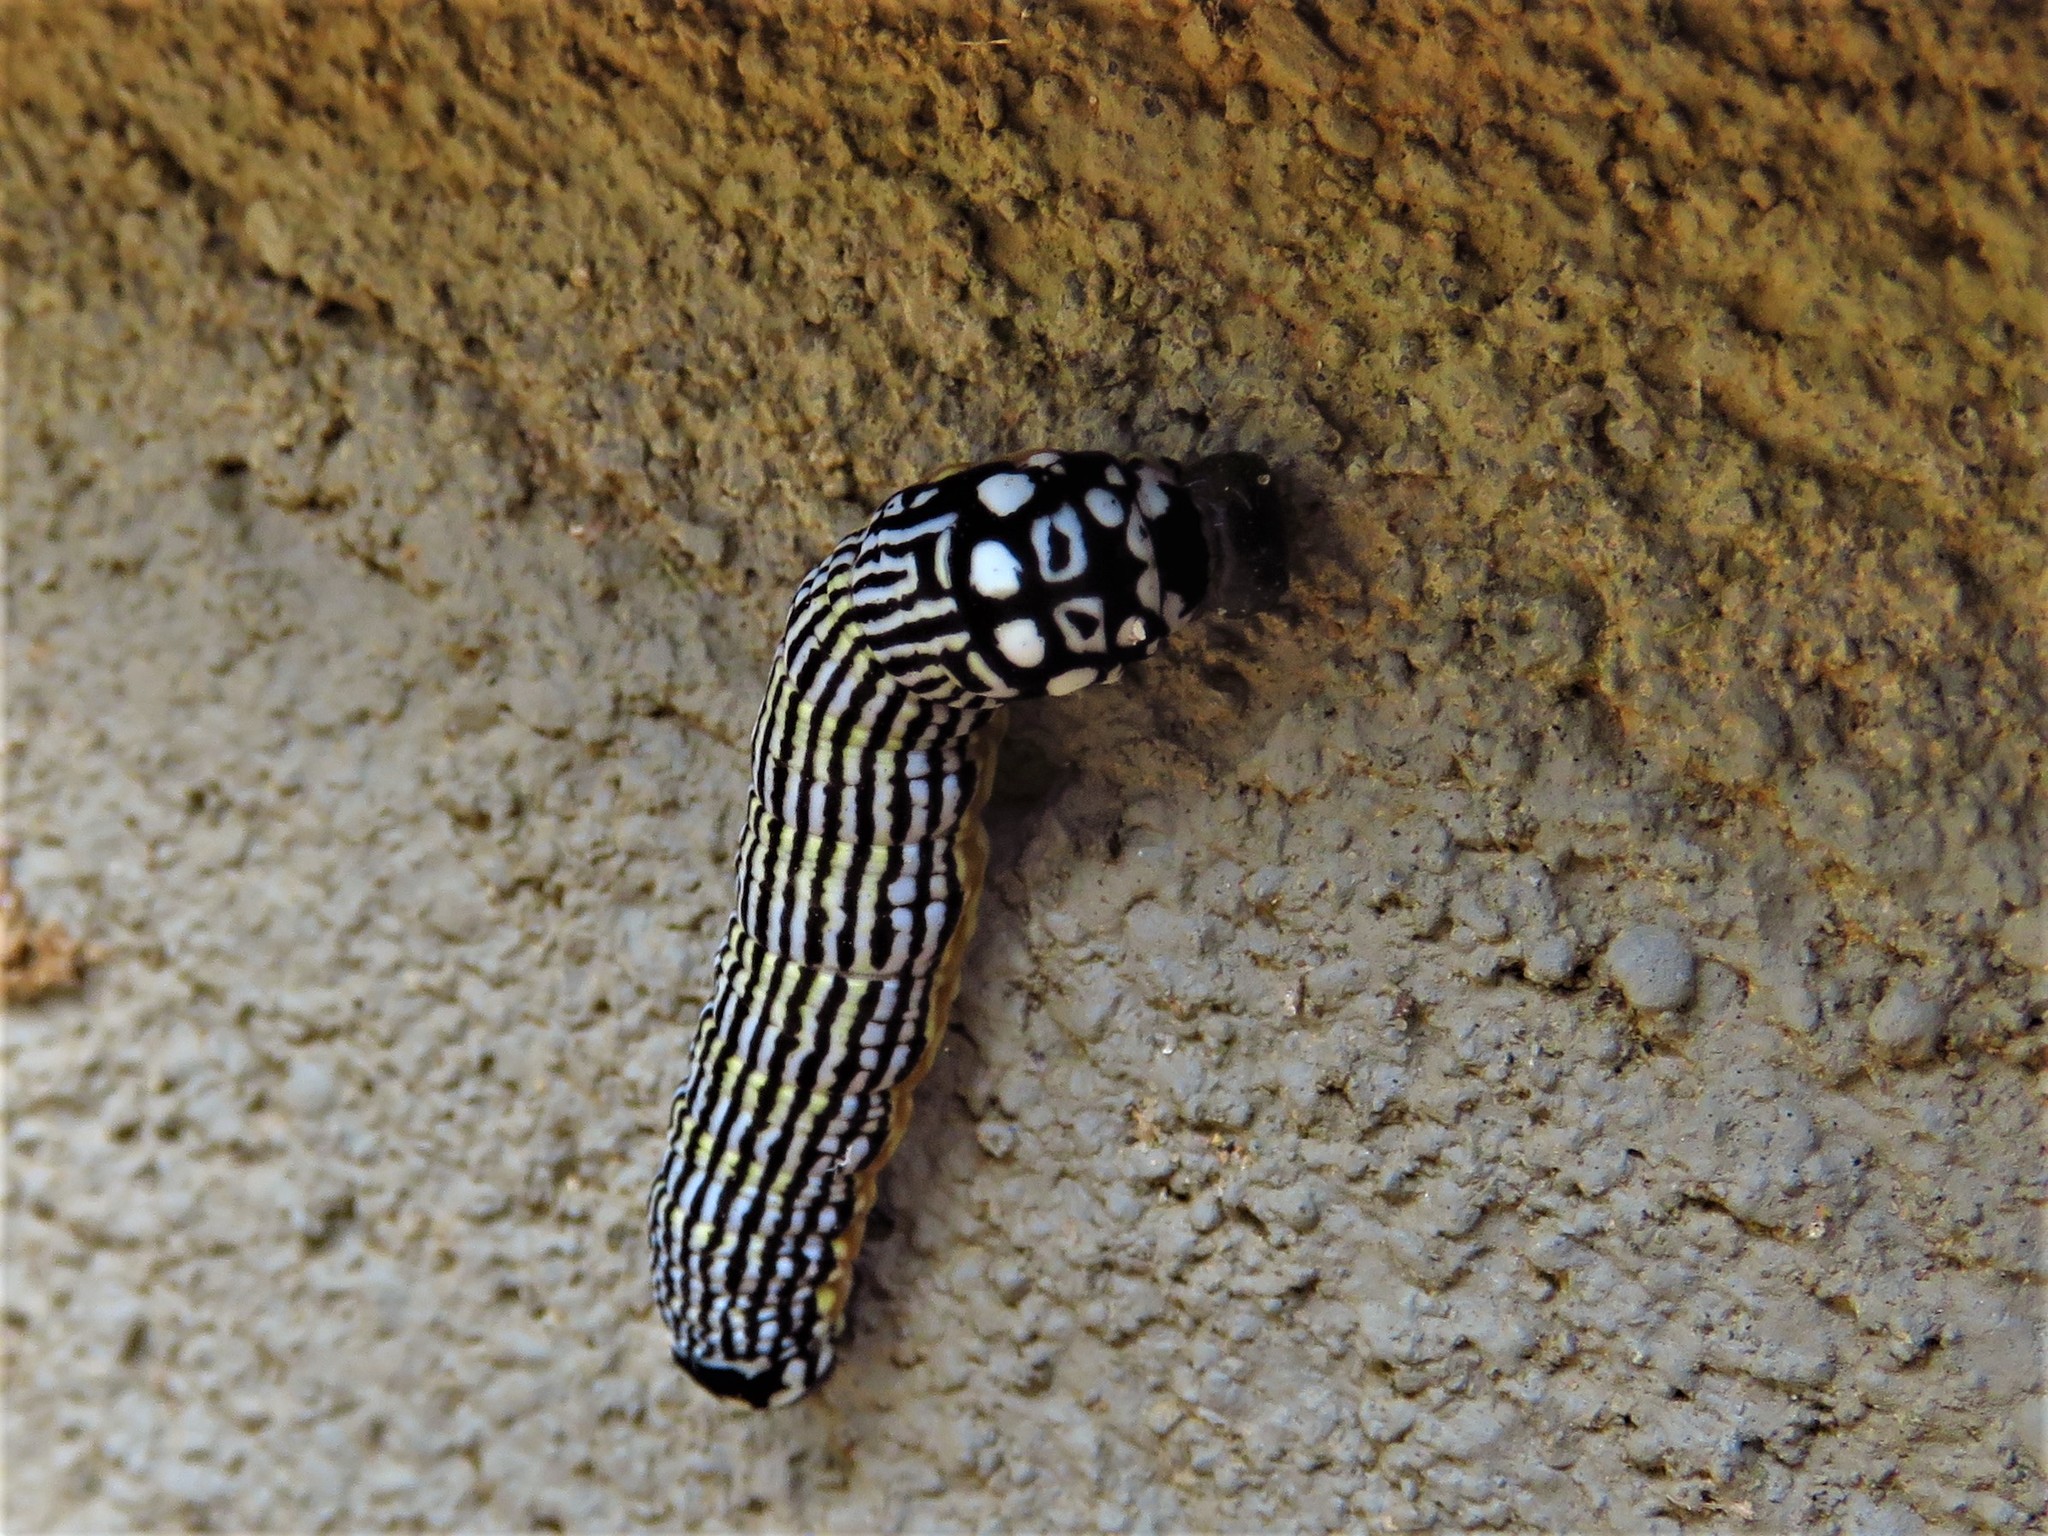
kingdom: Animalia
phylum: Arthropoda
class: Insecta
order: Lepidoptera
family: Noctuidae
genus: Phosphila
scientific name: Phosphila turbulenta
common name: Turbulent phosphila moth
